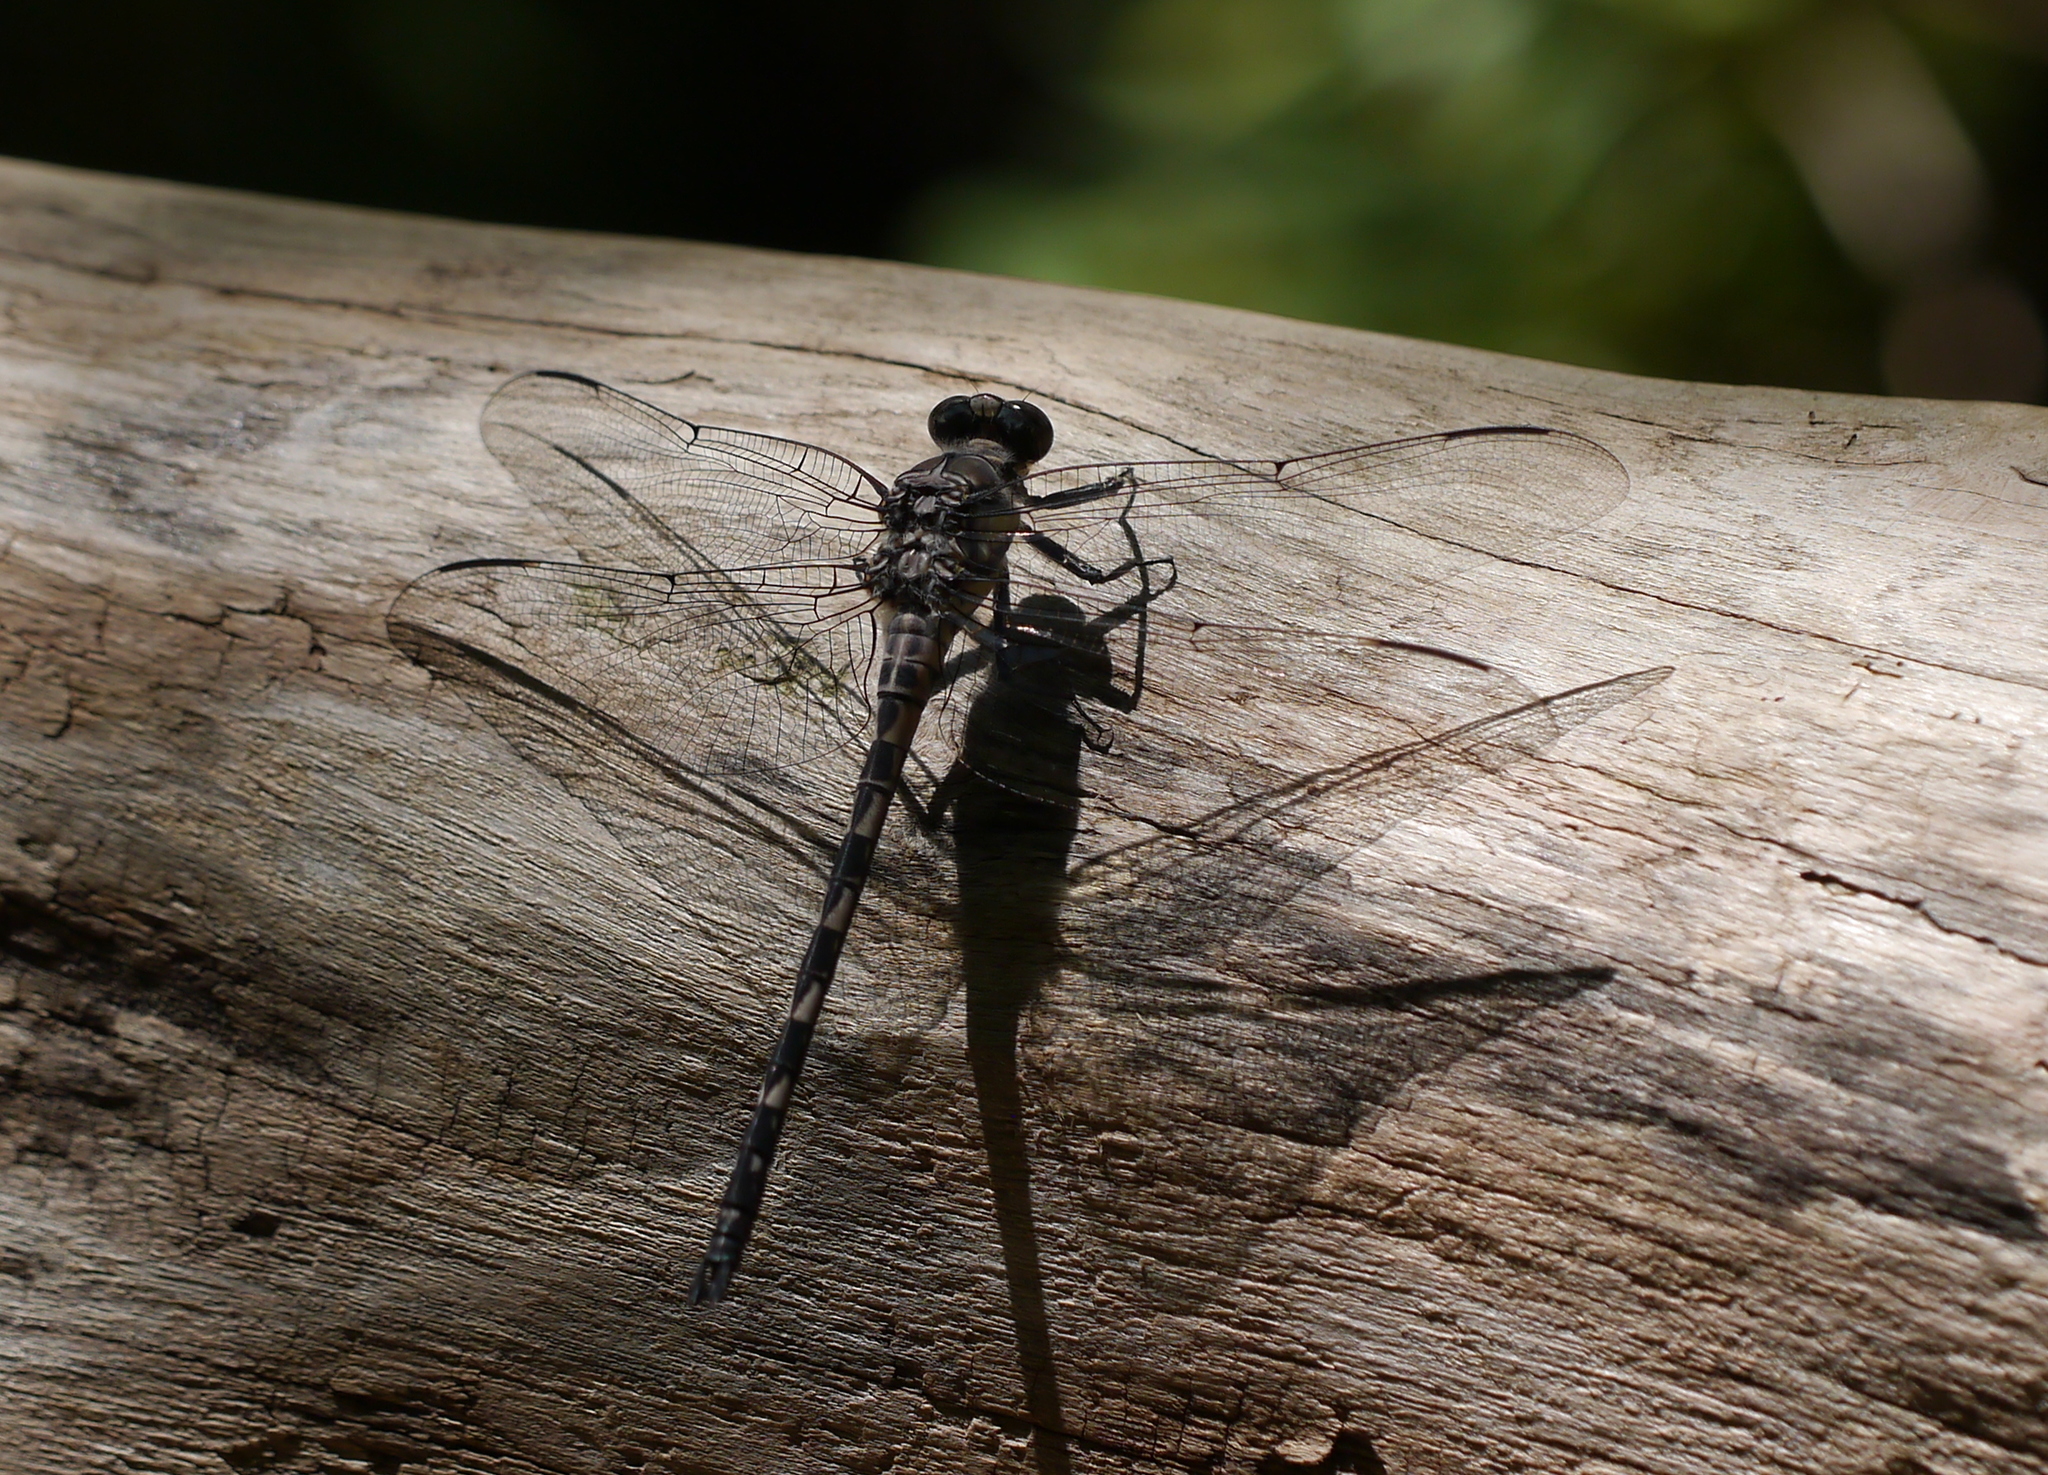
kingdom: Animalia
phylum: Arthropoda
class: Insecta
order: Odonata
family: Petaluridae
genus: Tachopteryx
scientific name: Tachopteryx thoreyi
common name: Gray petaltail
